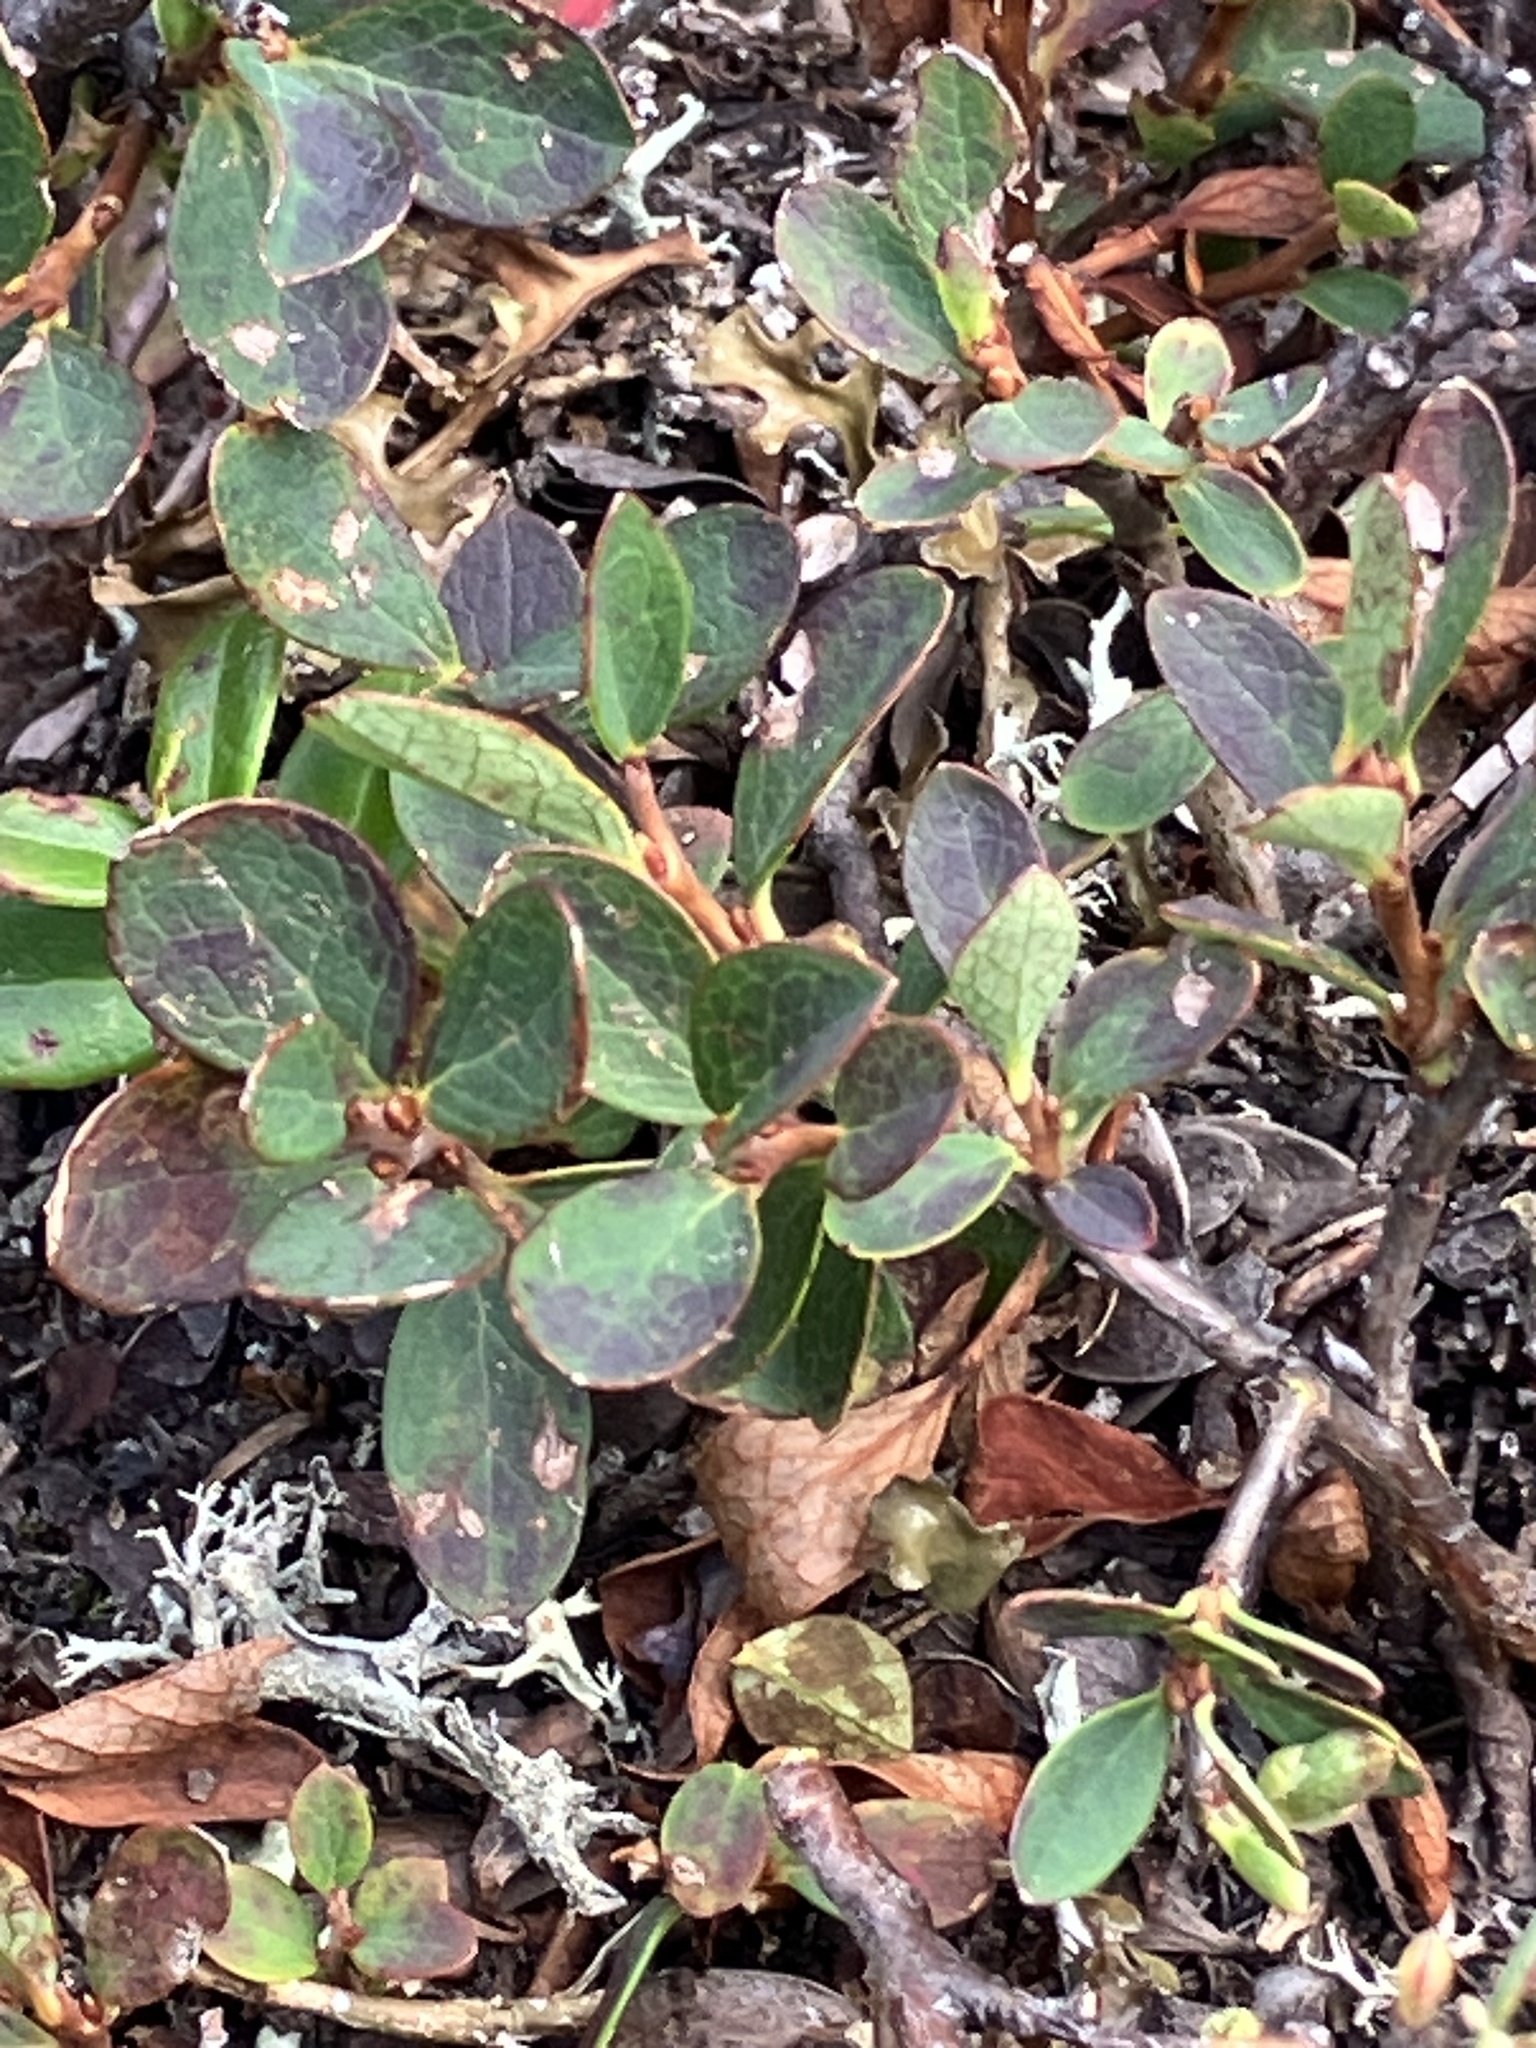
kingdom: Plantae
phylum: Tracheophyta
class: Magnoliopsida
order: Ericales
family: Ericaceae
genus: Vaccinium
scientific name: Vaccinium uliginosum
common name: Bog bilberry
